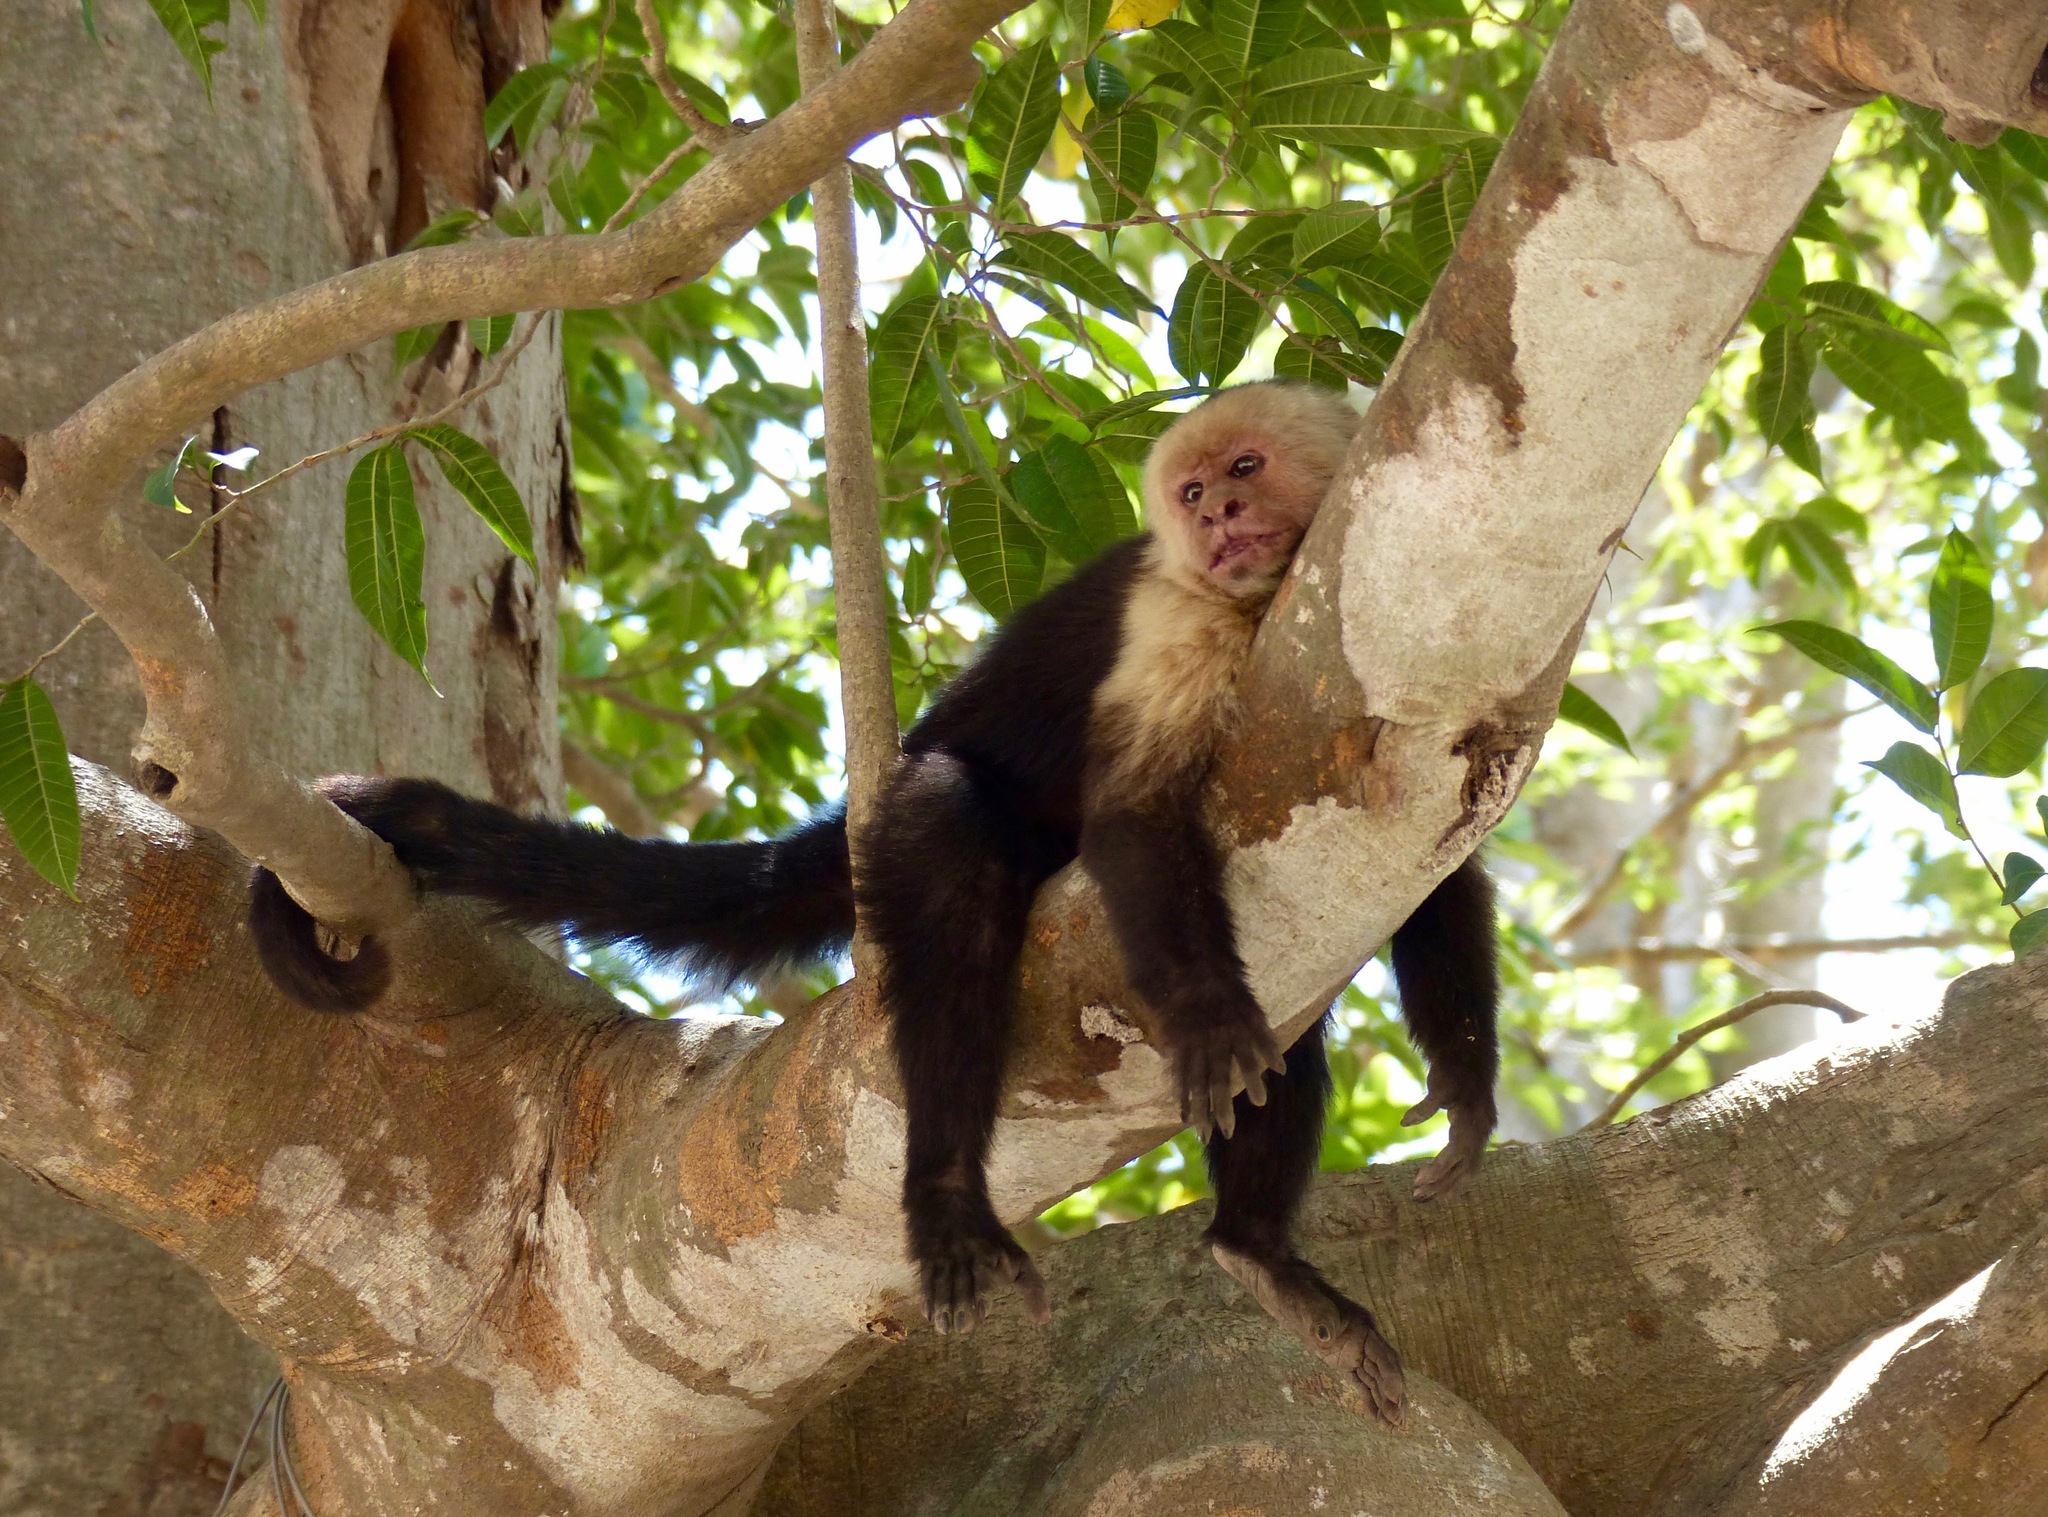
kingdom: Animalia
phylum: Chordata
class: Mammalia
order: Primates
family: Cebidae
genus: Cebus
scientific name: Cebus imitator
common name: Panamanian white-faced capuchin
